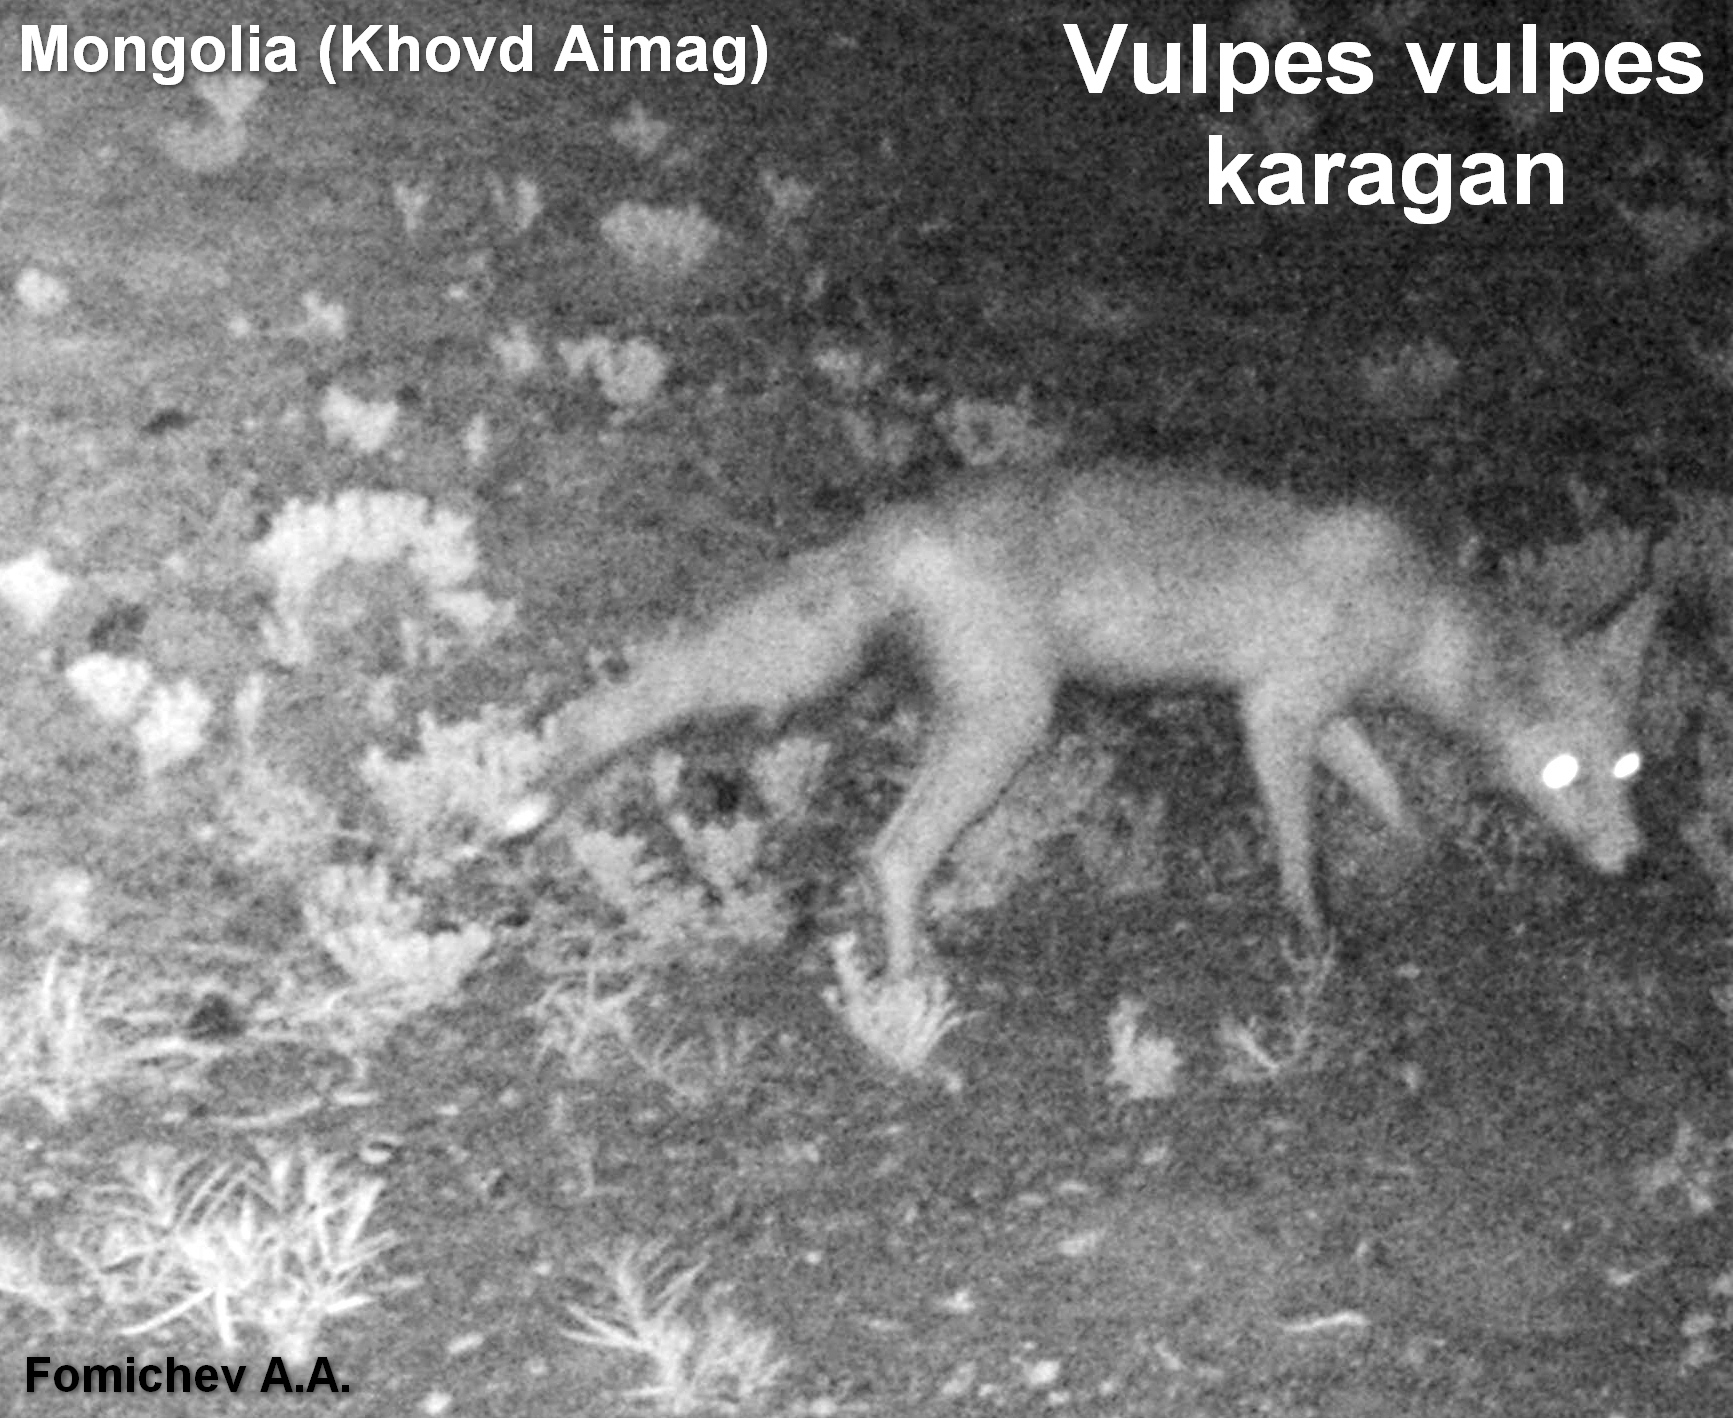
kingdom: Animalia
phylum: Chordata
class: Mammalia
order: Carnivora
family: Canidae
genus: Vulpes
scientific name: Vulpes vulpes
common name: Red fox
